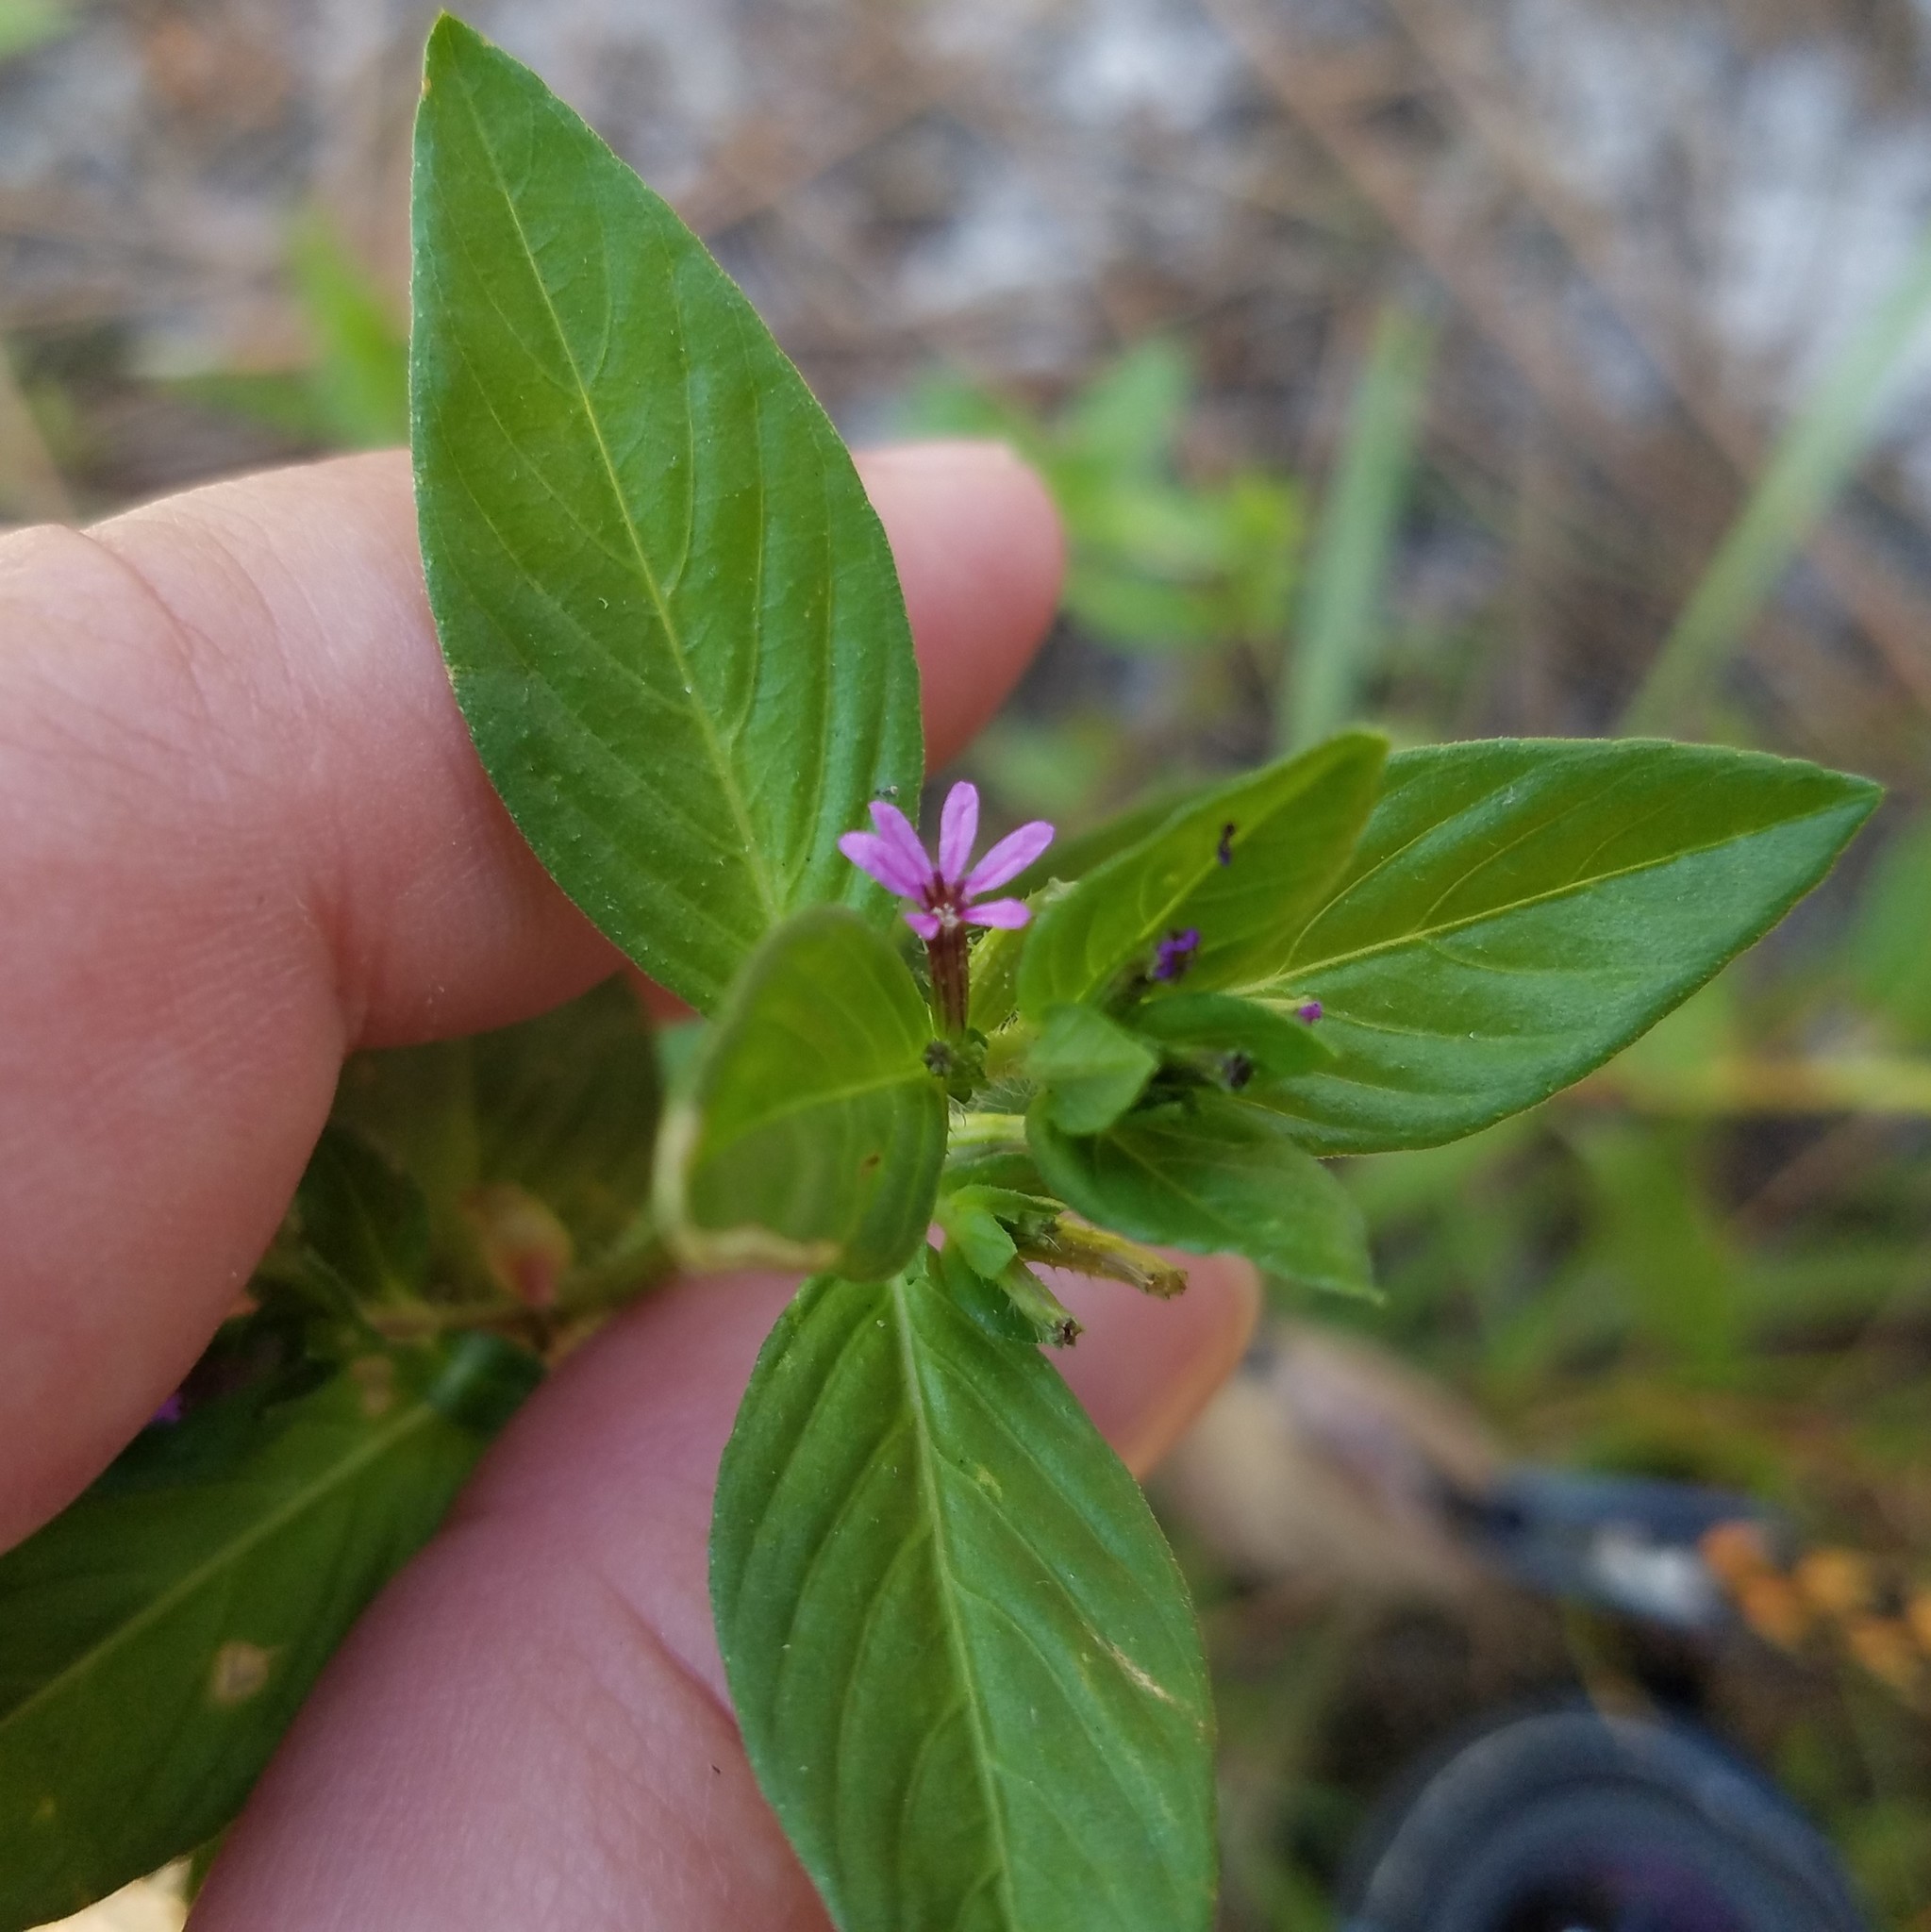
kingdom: Plantae
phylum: Tracheophyta
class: Magnoliopsida
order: Myrtales
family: Lythraceae
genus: Cuphea
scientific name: Cuphea carthagenensis
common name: Colombian waxweed
